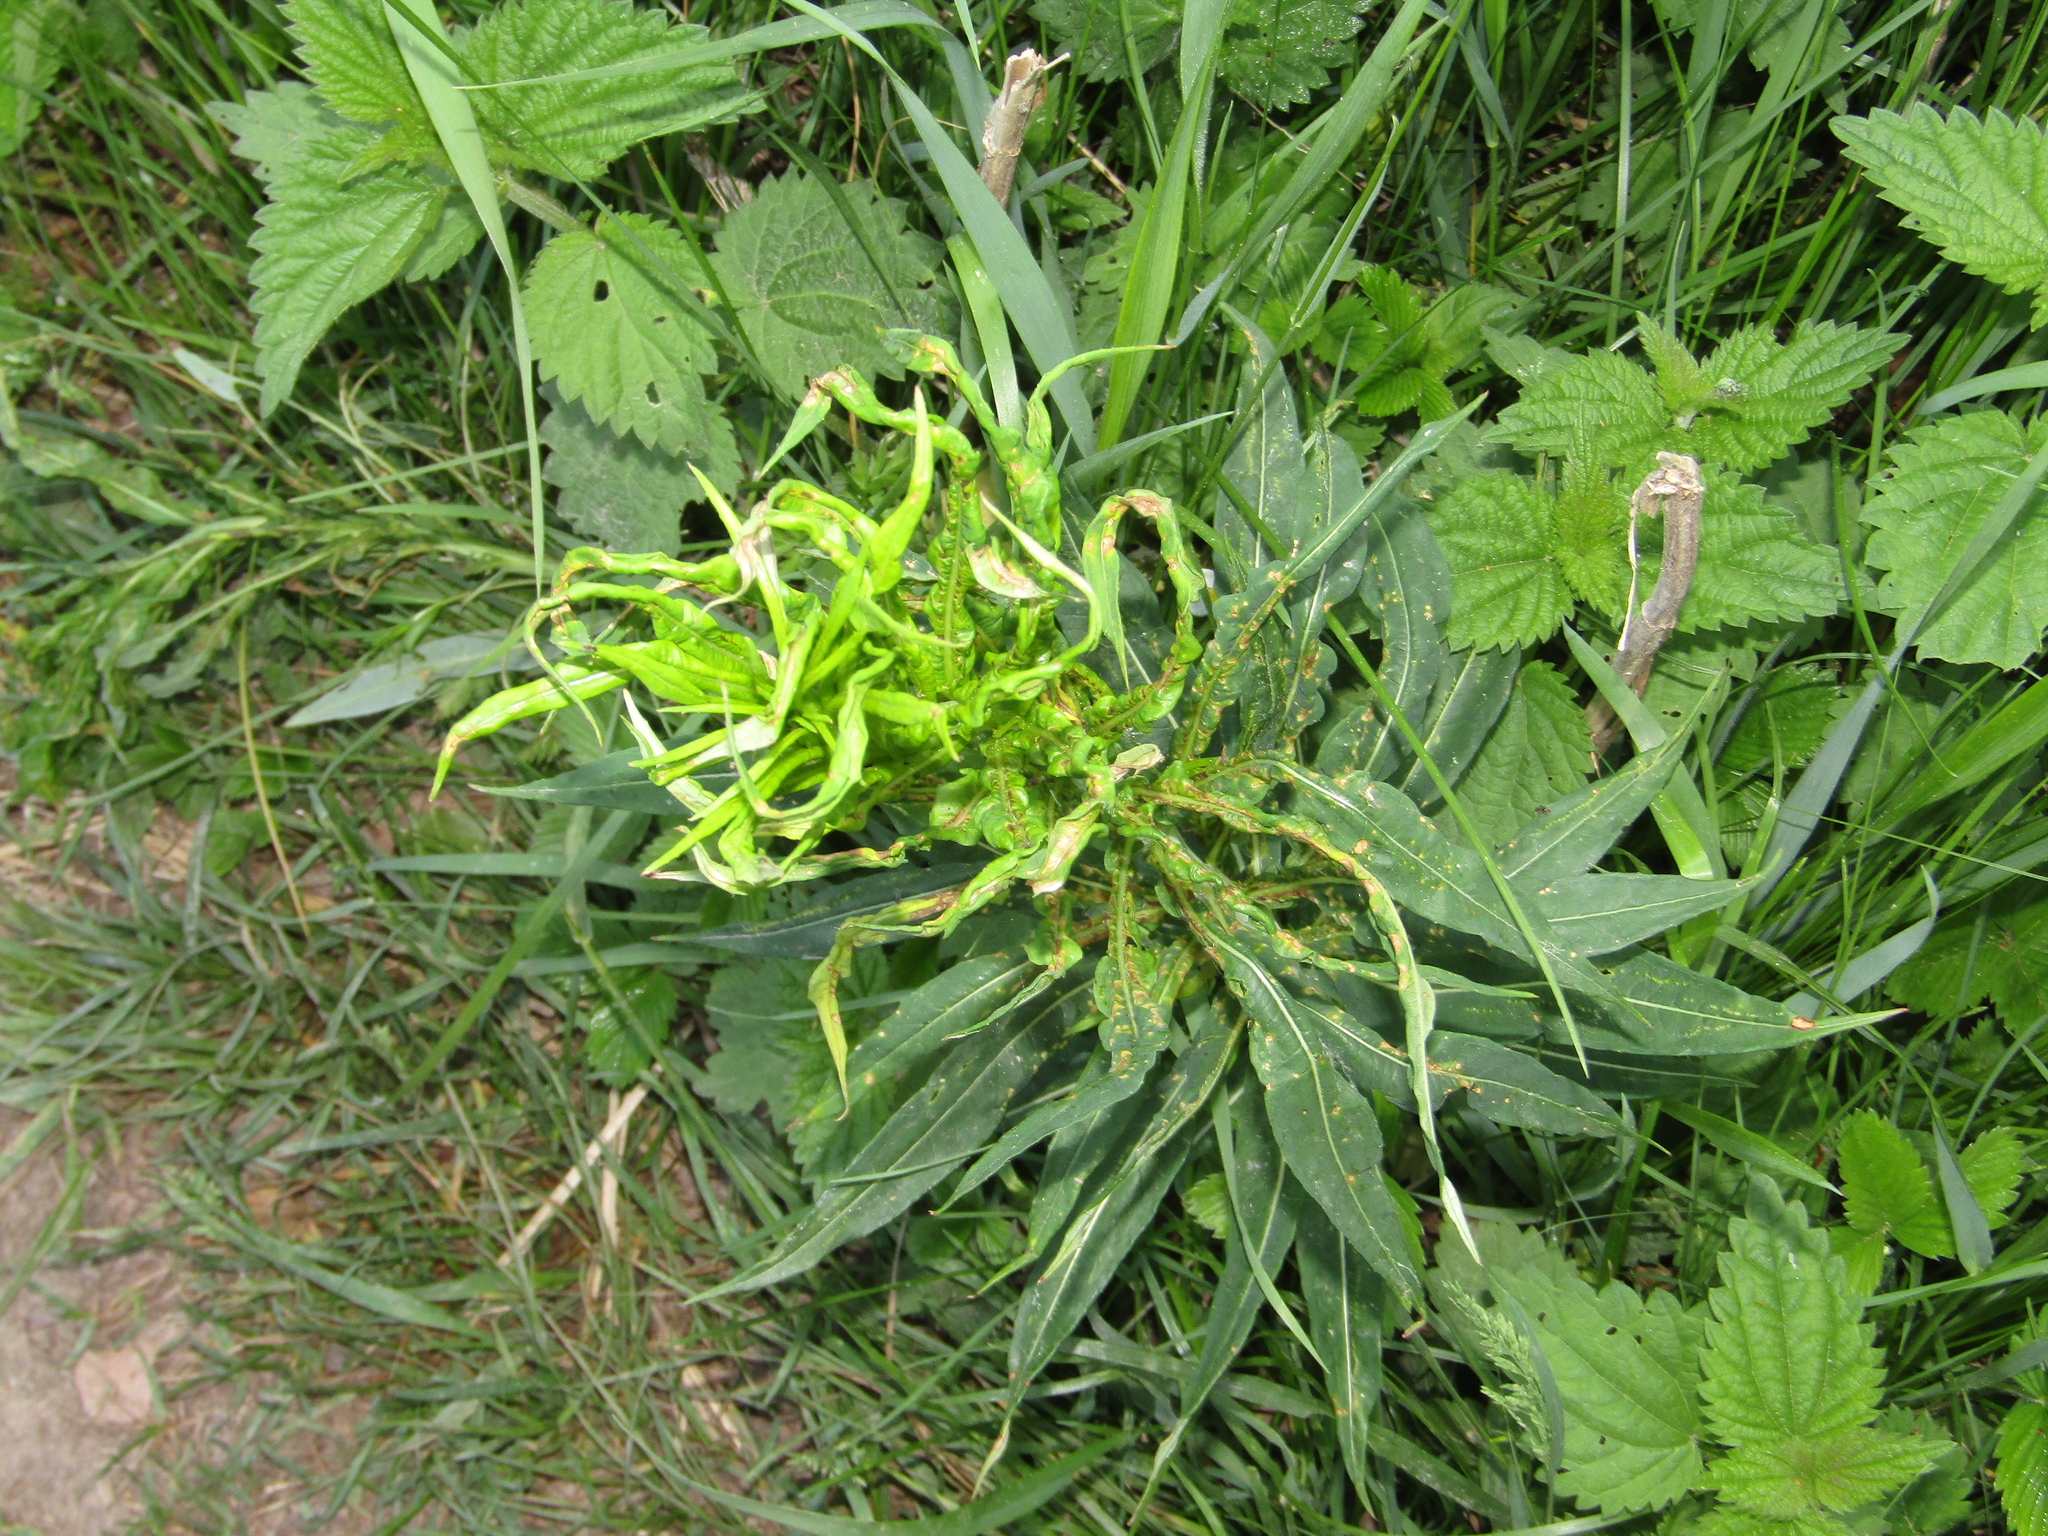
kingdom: Plantae
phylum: Tracheophyta
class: Magnoliopsida
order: Myrtales
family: Onagraceae
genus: Chamaenerion
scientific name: Chamaenerion angustifolium
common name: Fireweed
